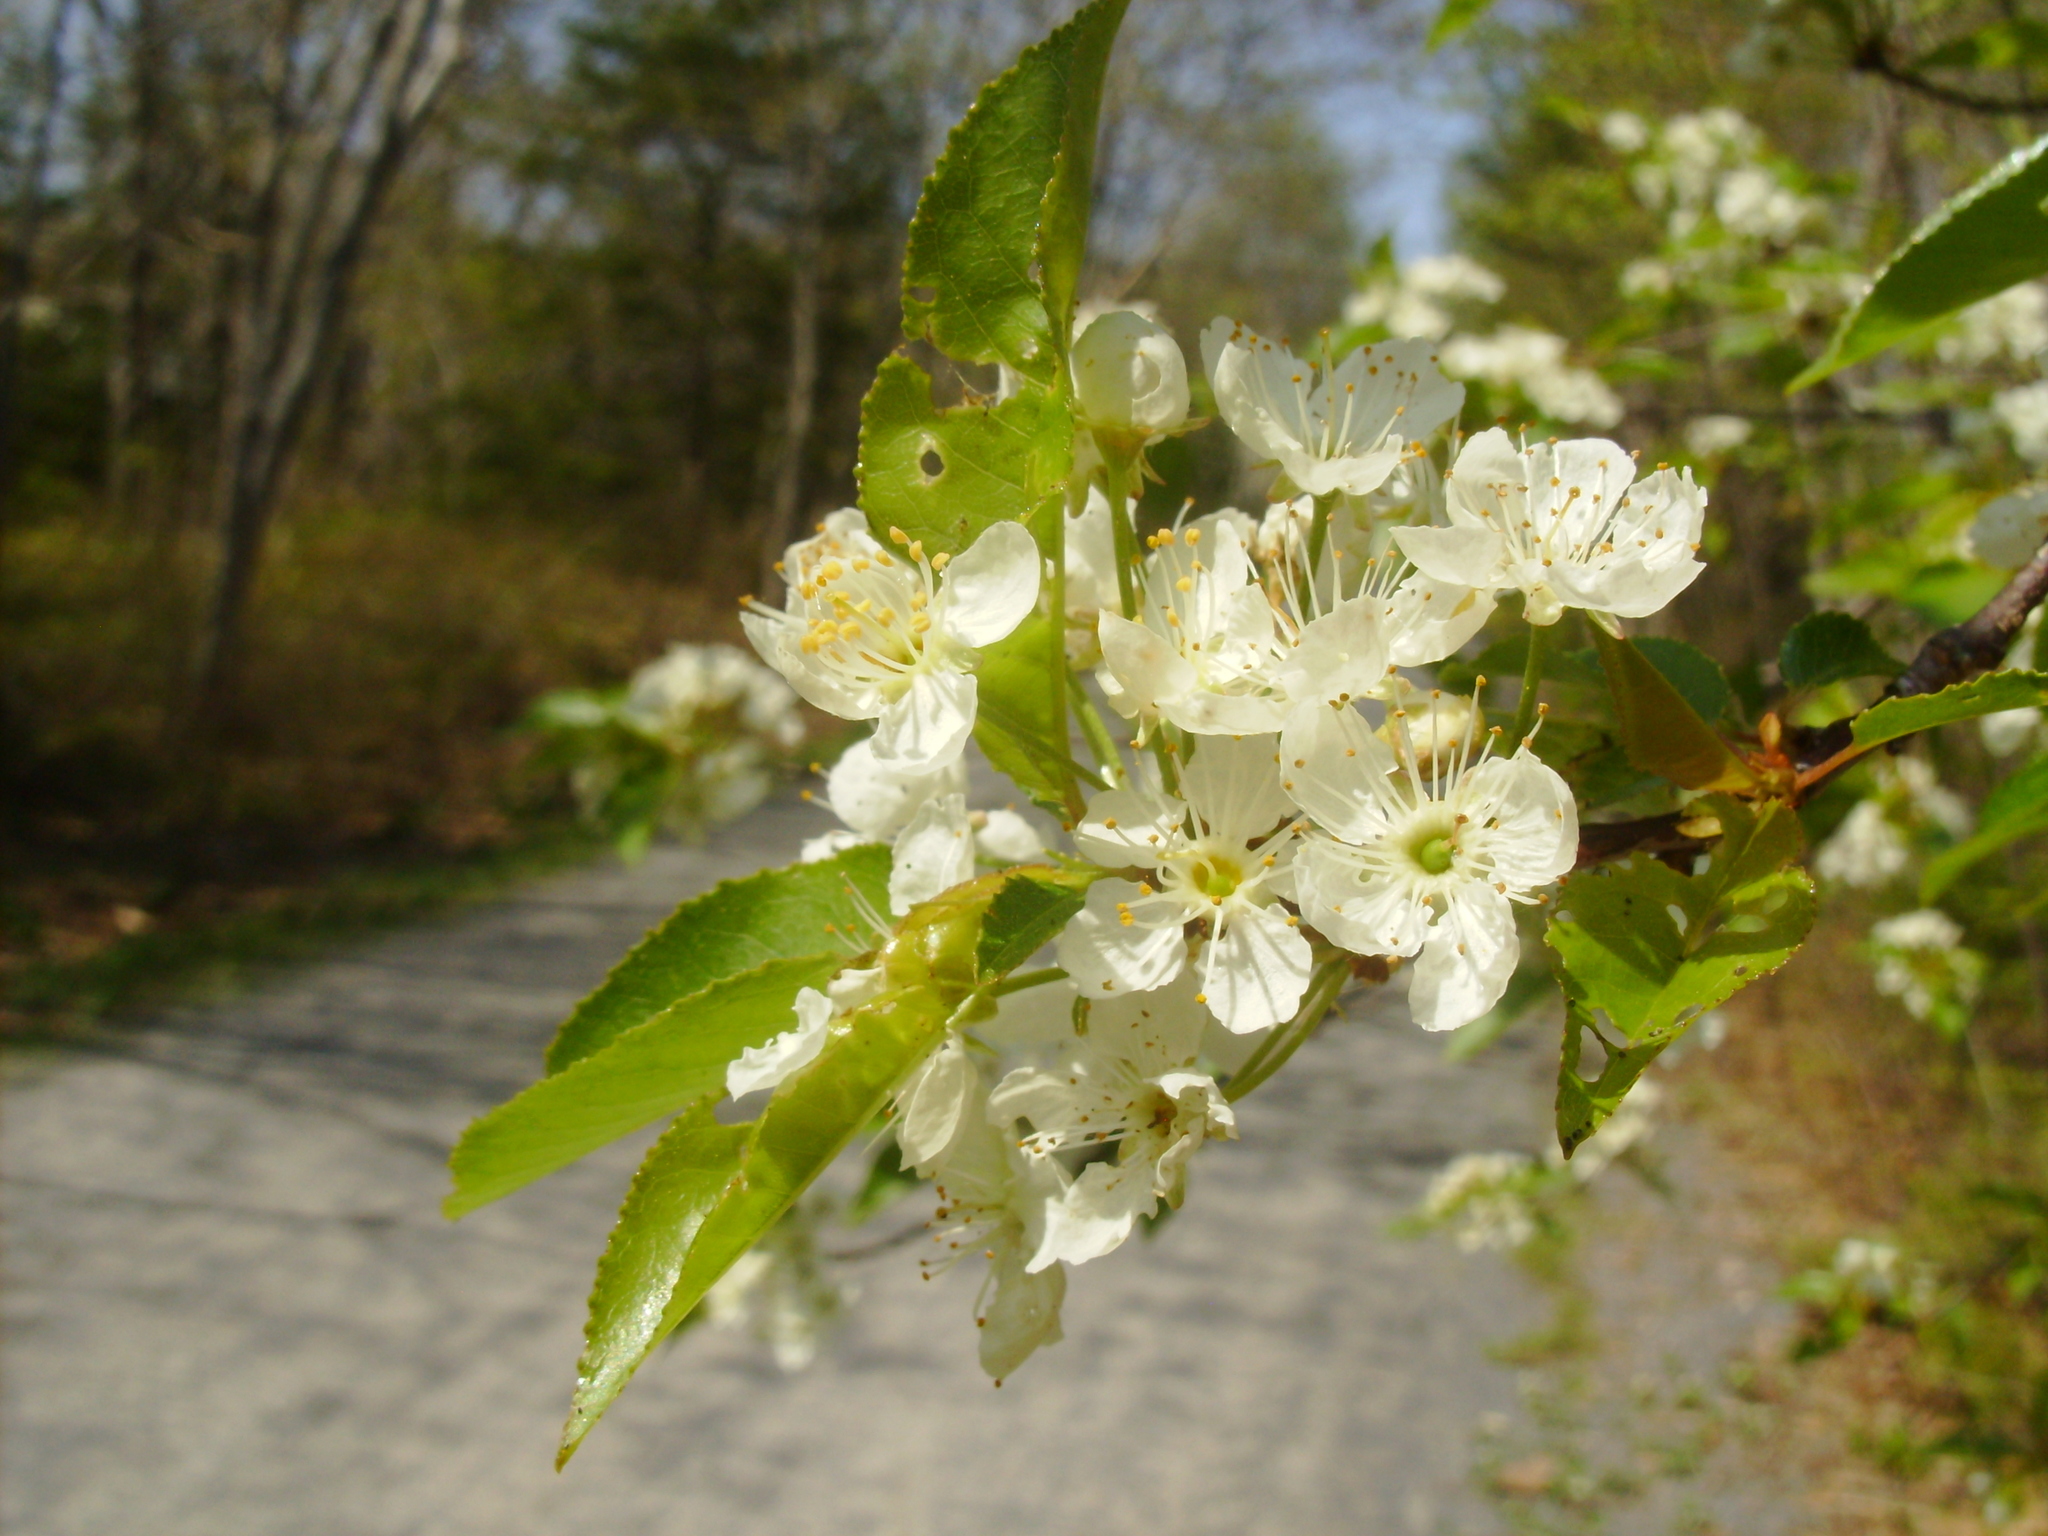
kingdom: Plantae
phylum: Tracheophyta
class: Magnoliopsida
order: Rosales
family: Rosaceae
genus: Prunus
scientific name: Prunus pensylvanica
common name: Pin cherry
